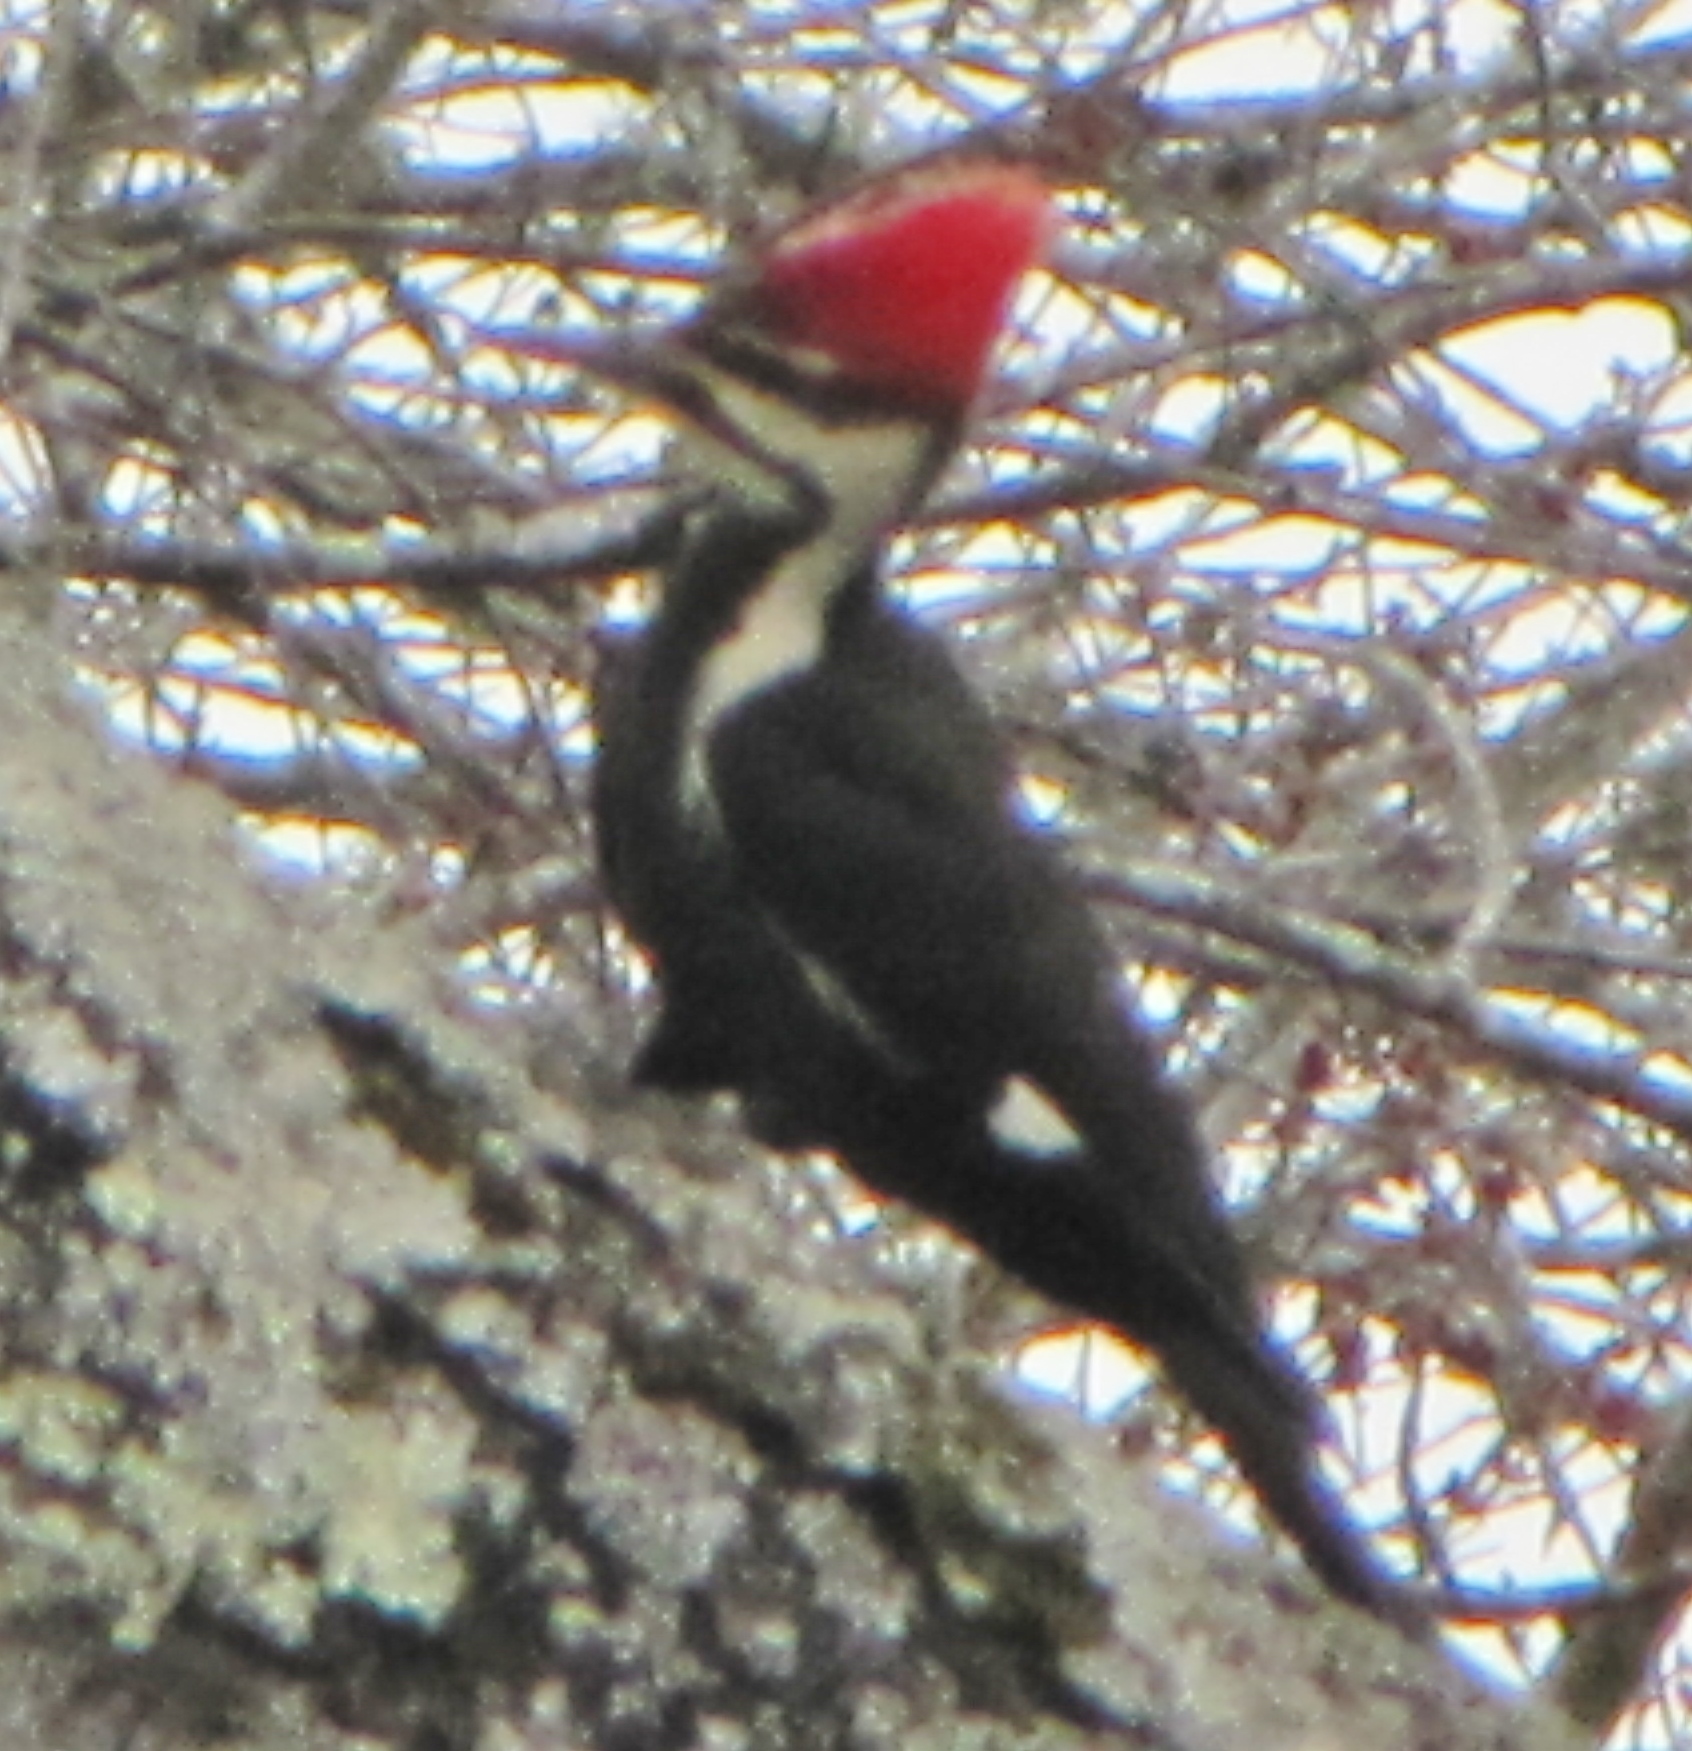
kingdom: Animalia
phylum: Chordata
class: Aves
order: Piciformes
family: Picidae
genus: Dryocopus
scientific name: Dryocopus pileatus
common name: Pileated woodpecker
